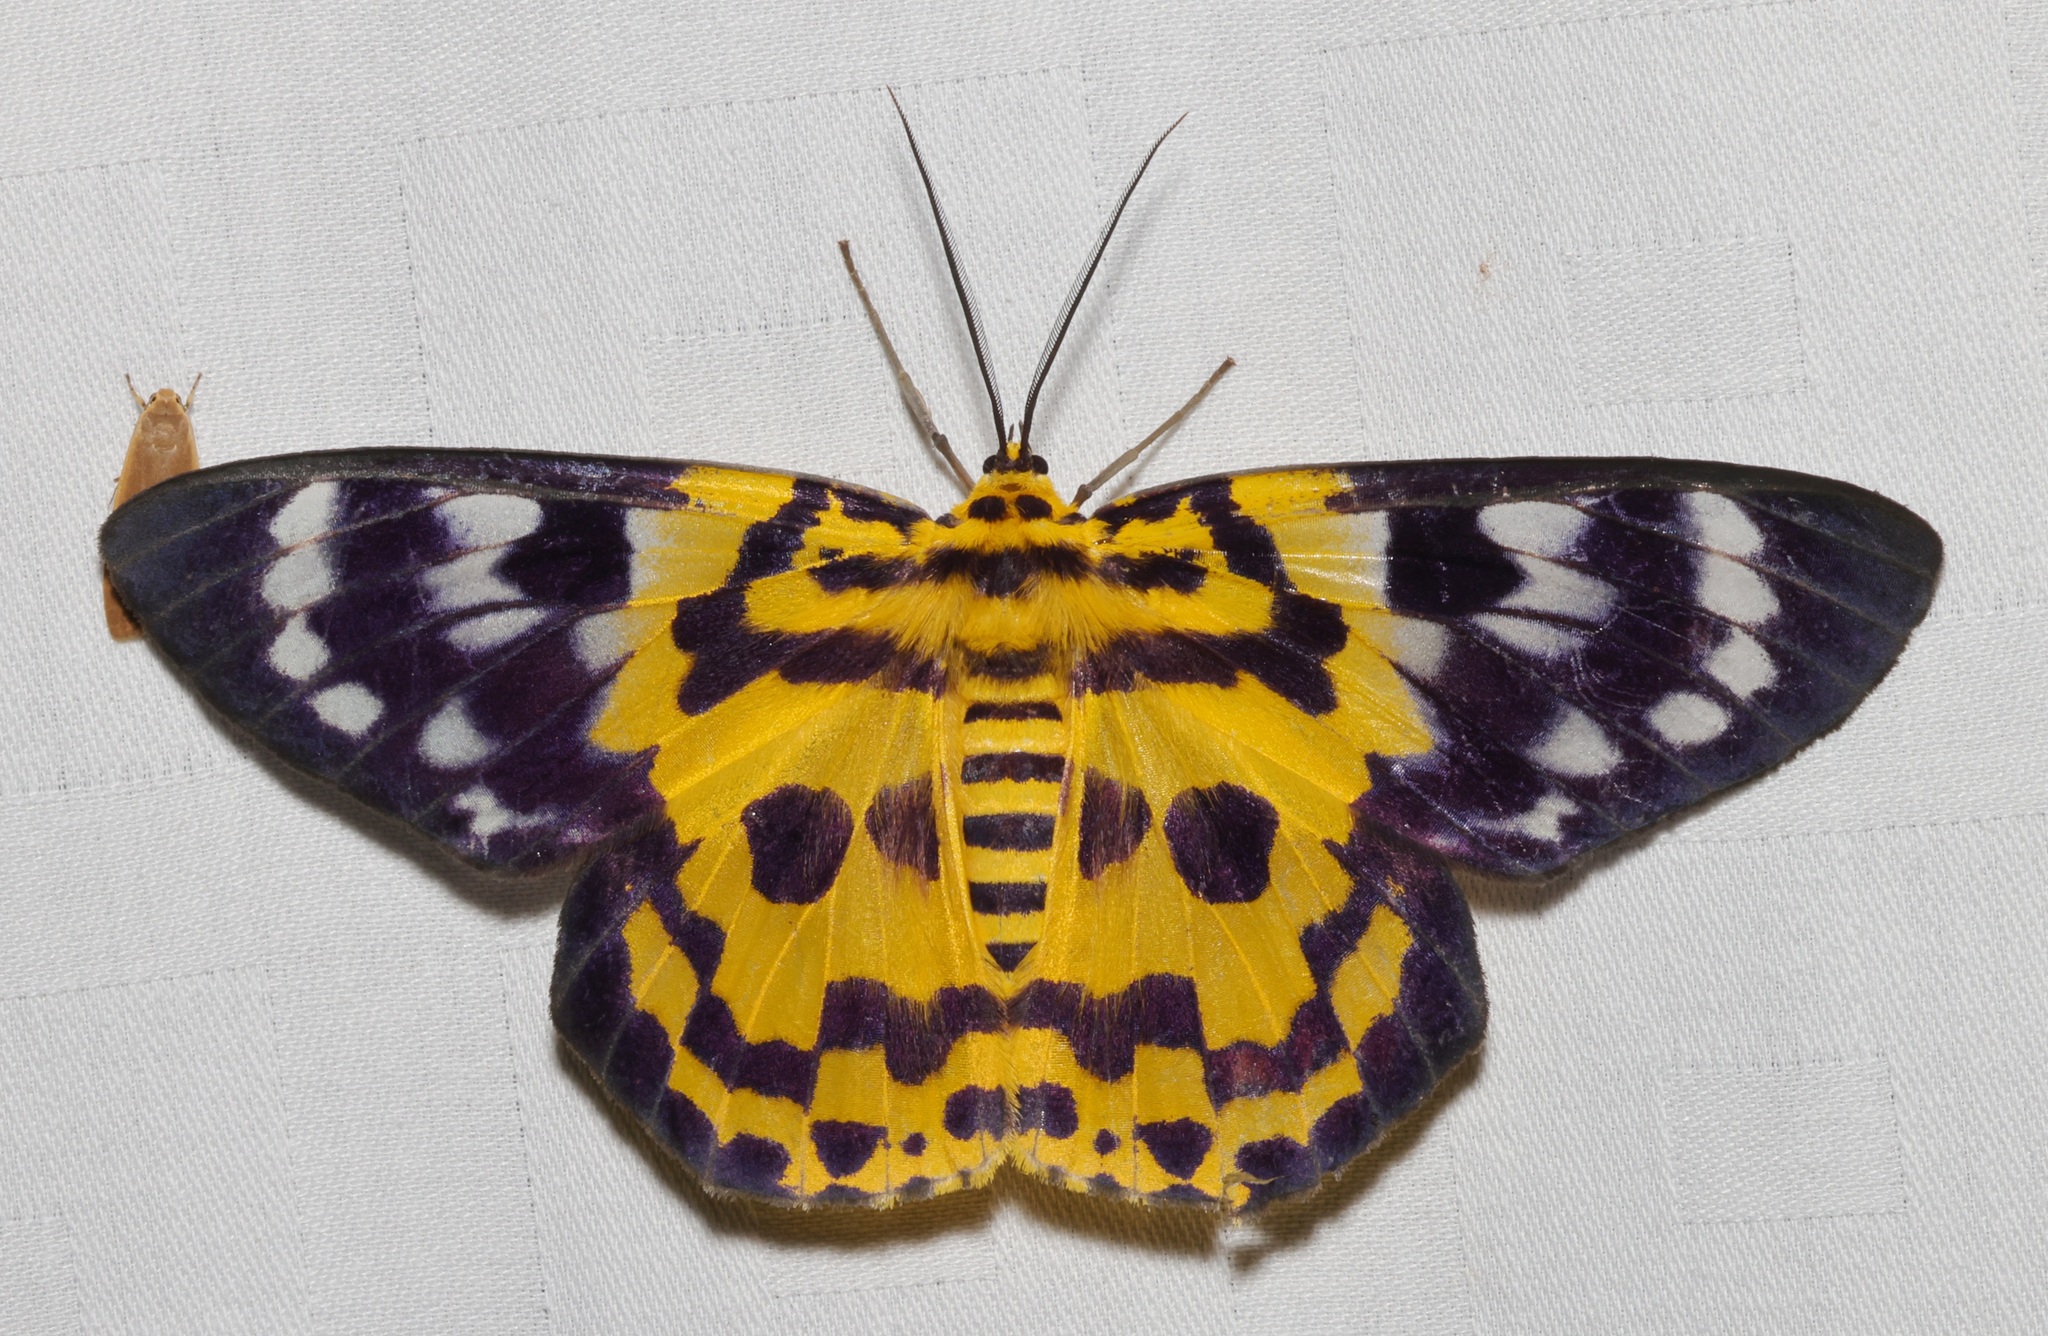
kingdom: Animalia
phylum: Arthropoda
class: Insecta
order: Lepidoptera
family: Geometridae
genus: Dysphania
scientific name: Dysphania militaris
